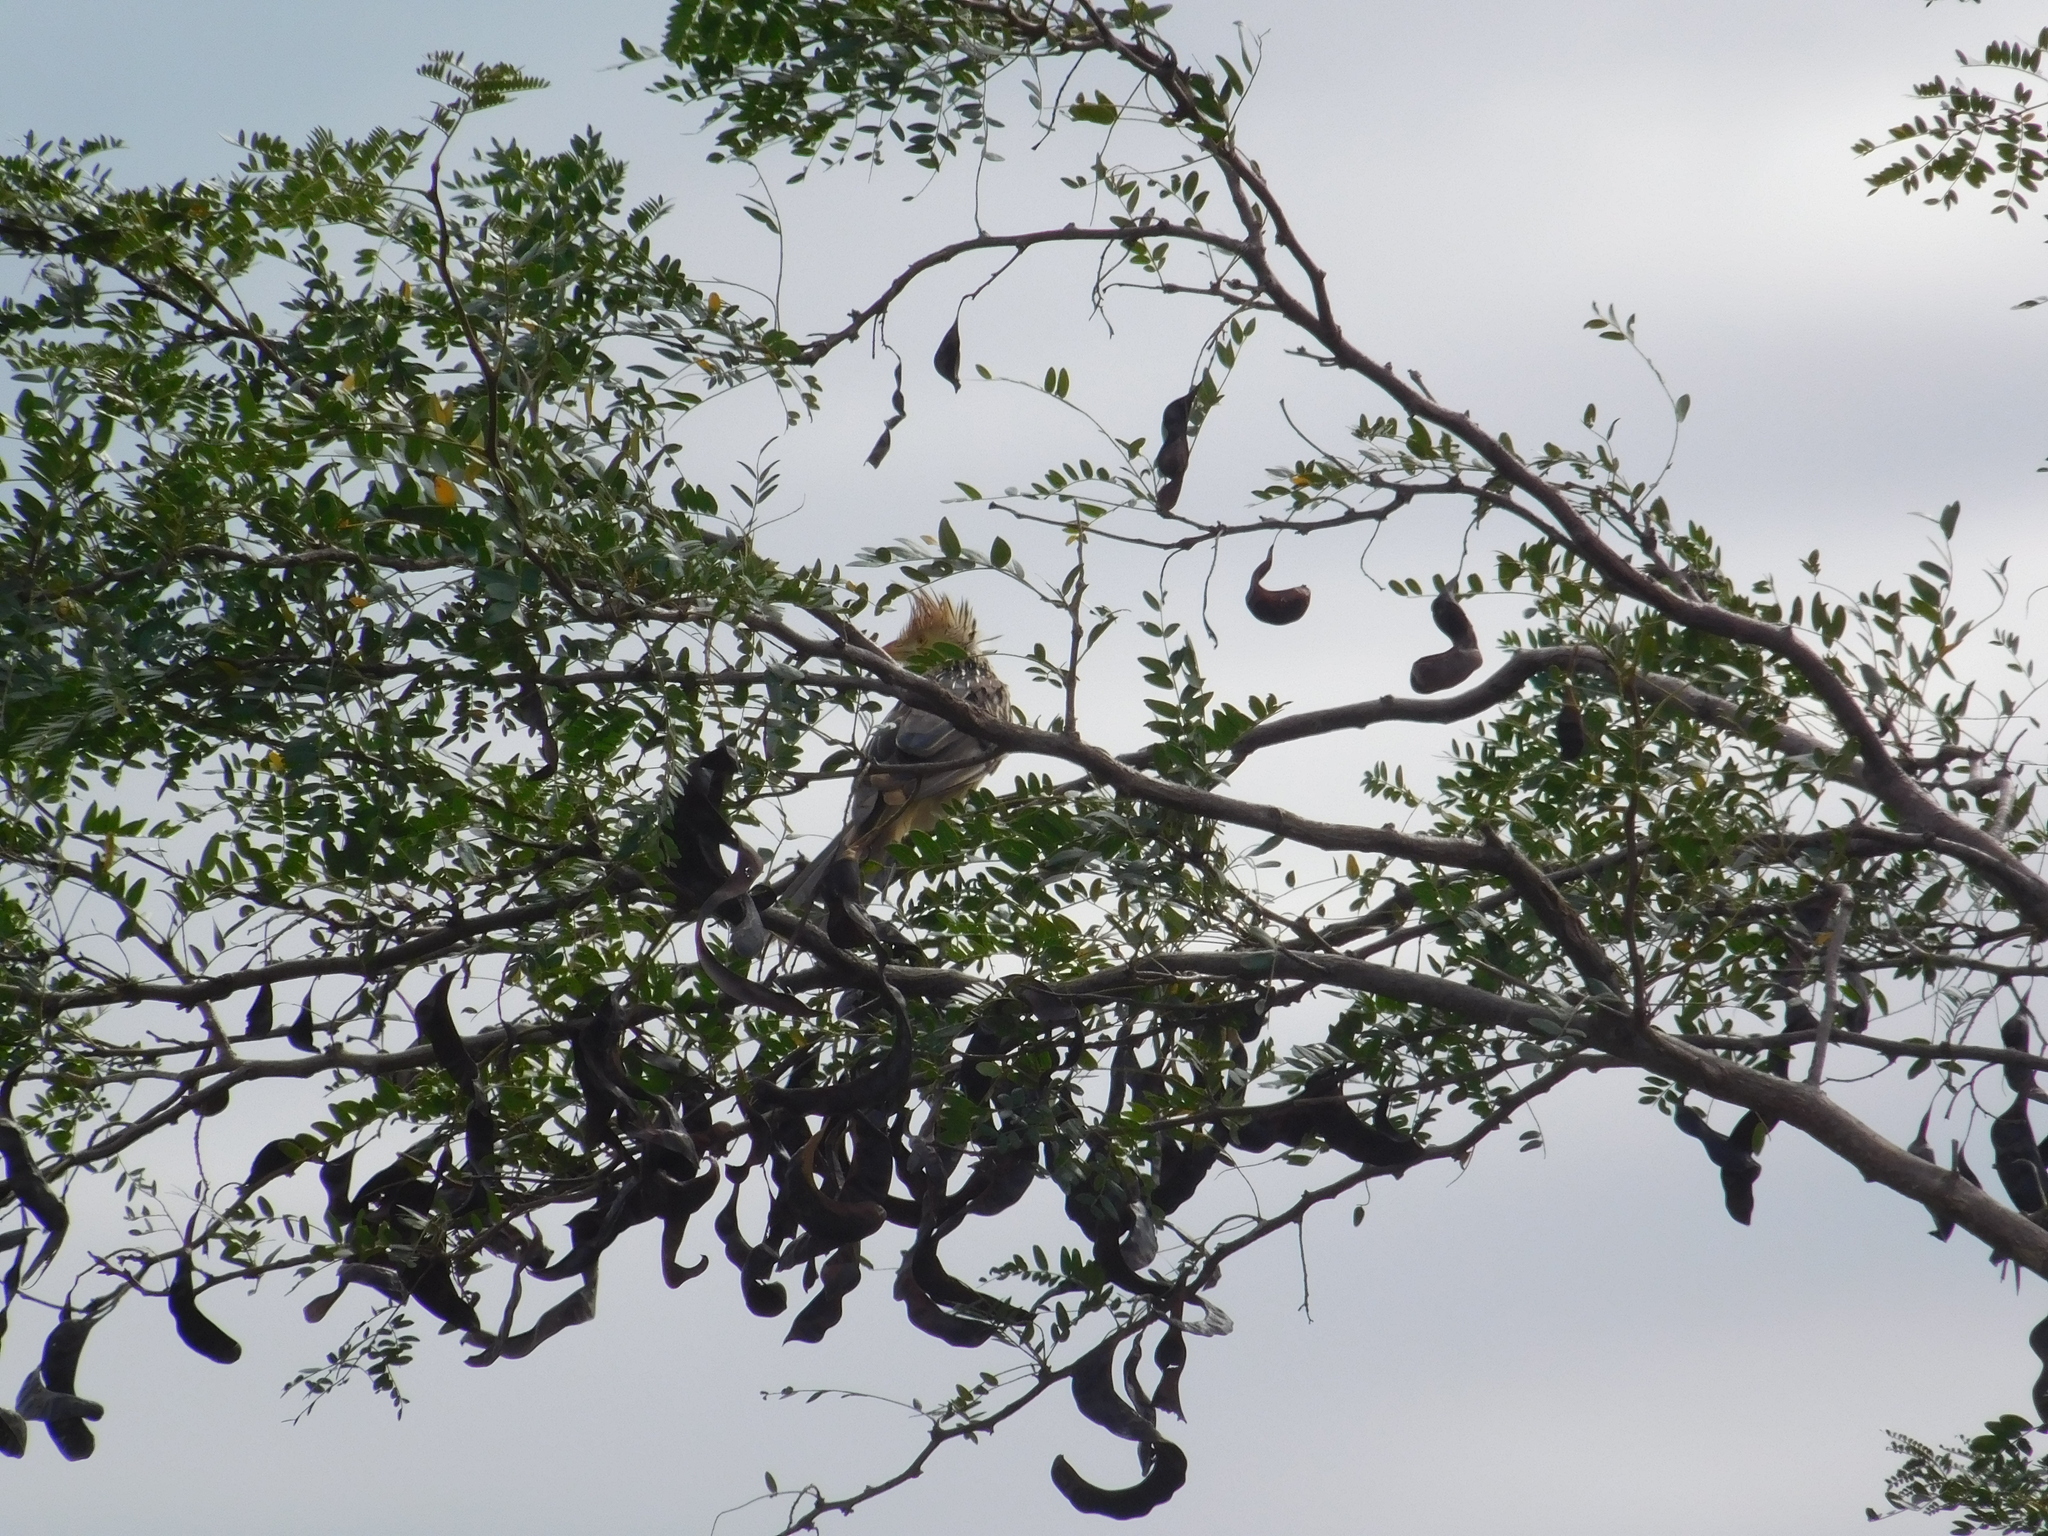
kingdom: Animalia
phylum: Chordata
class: Aves
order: Cuculiformes
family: Cuculidae
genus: Guira
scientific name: Guira guira
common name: Guira cuckoo
